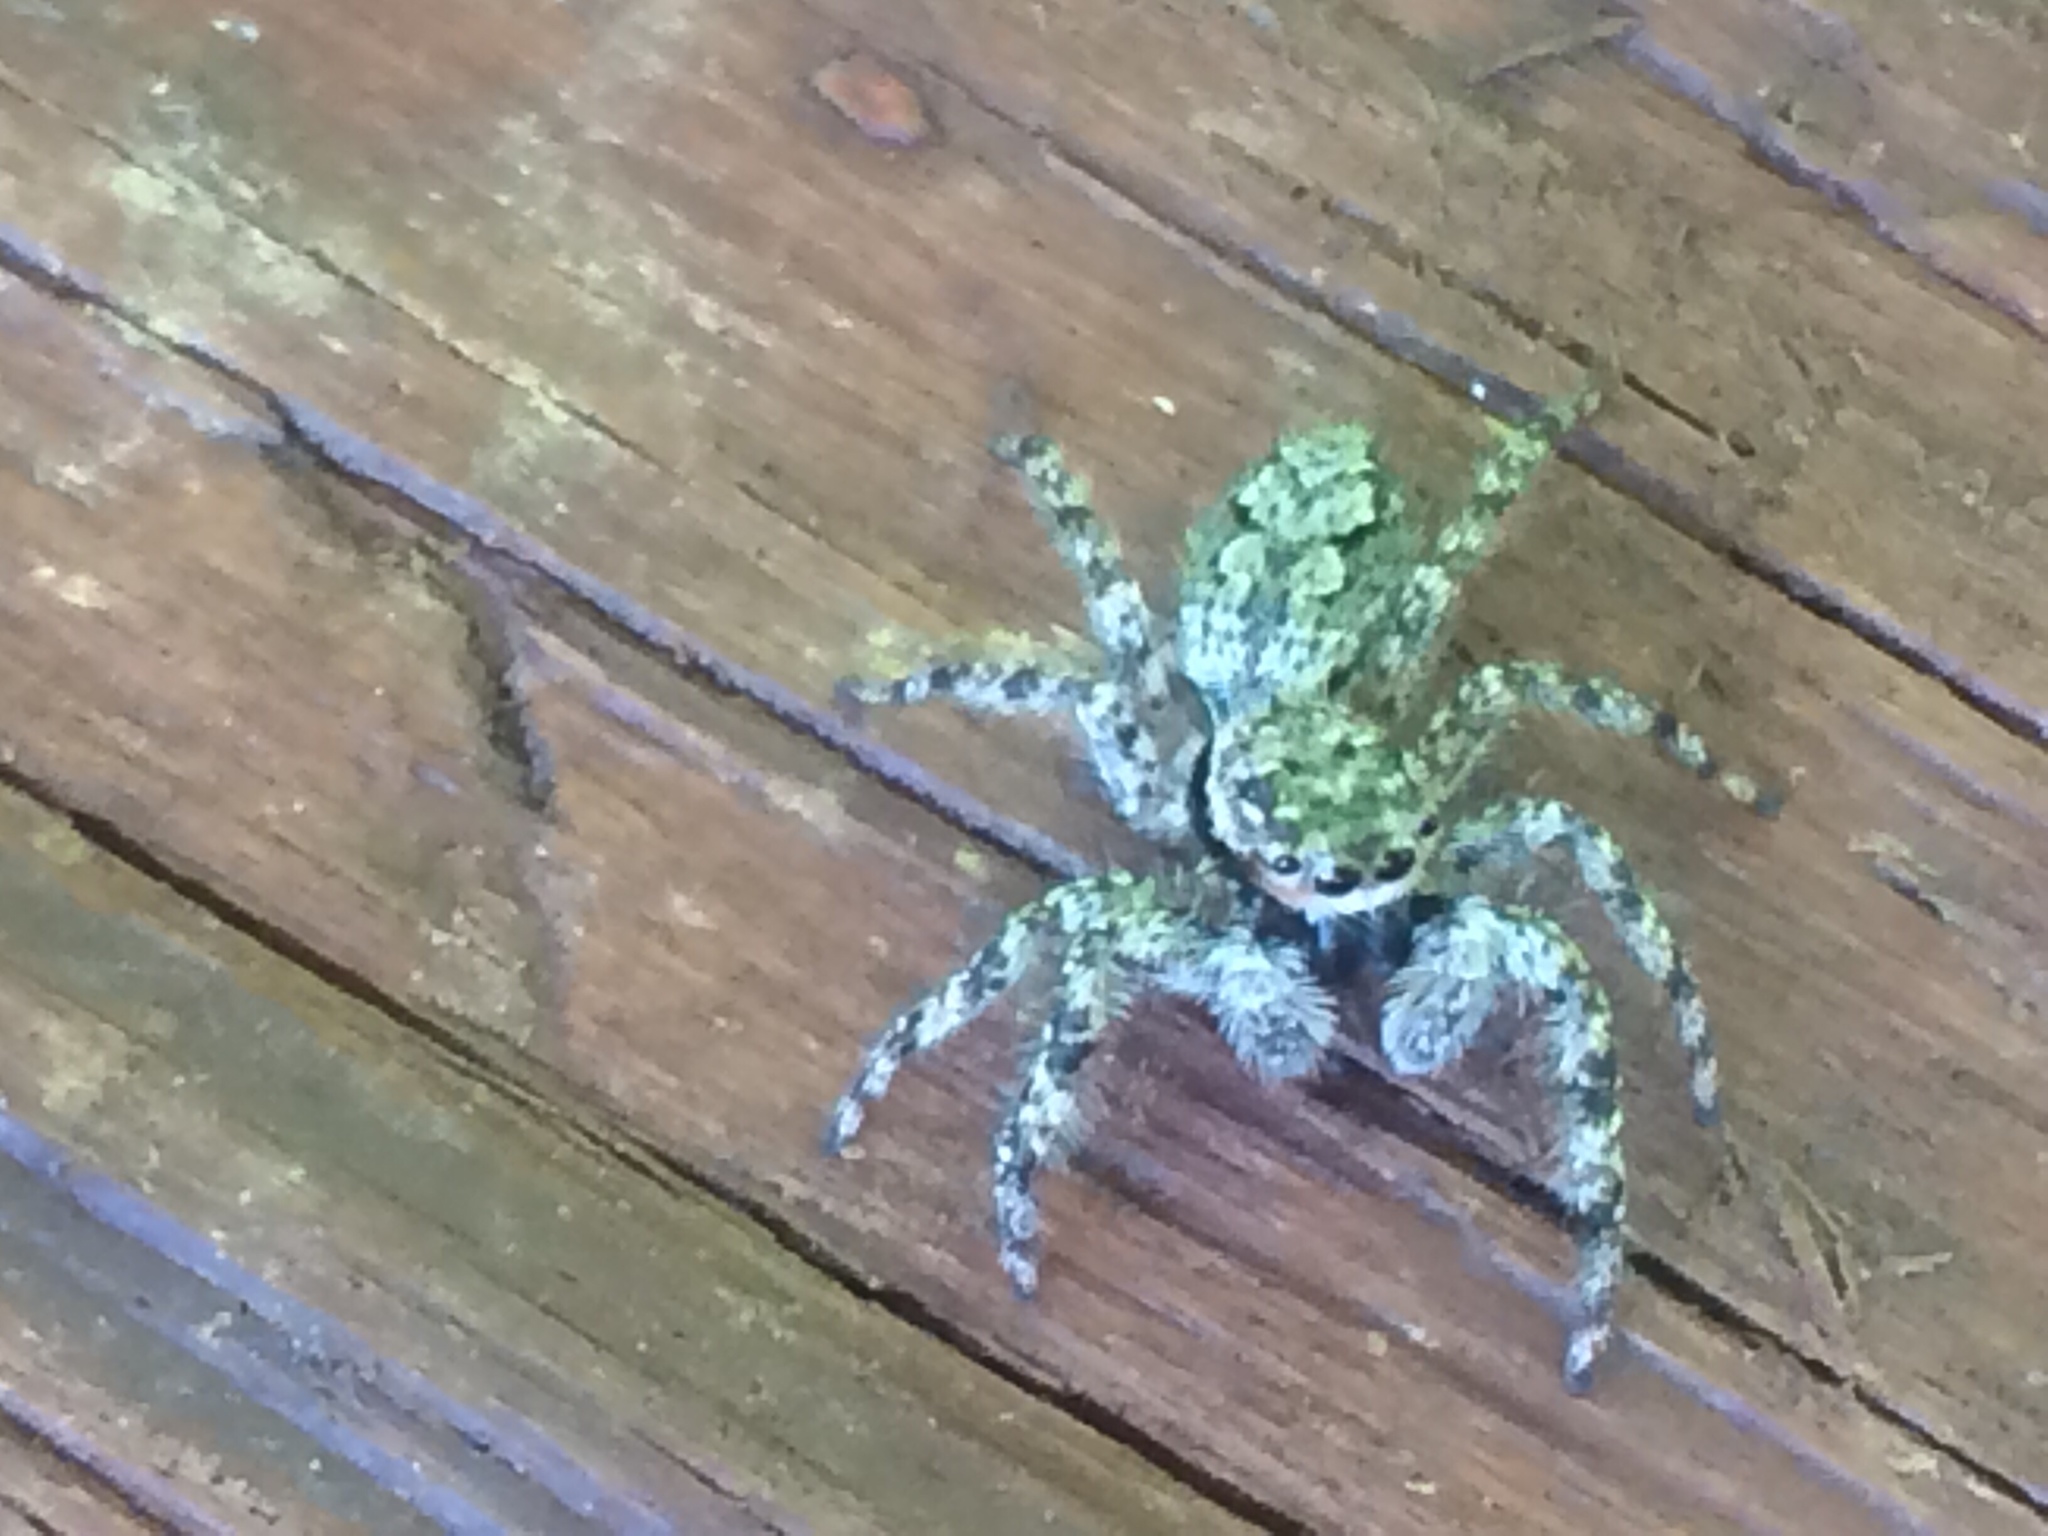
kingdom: Animalia
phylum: Arthropoda
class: Arachnida
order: Araneae
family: Salticidae
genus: Platycryptus
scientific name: Platycryptus undatus
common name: Tan jumping spider
